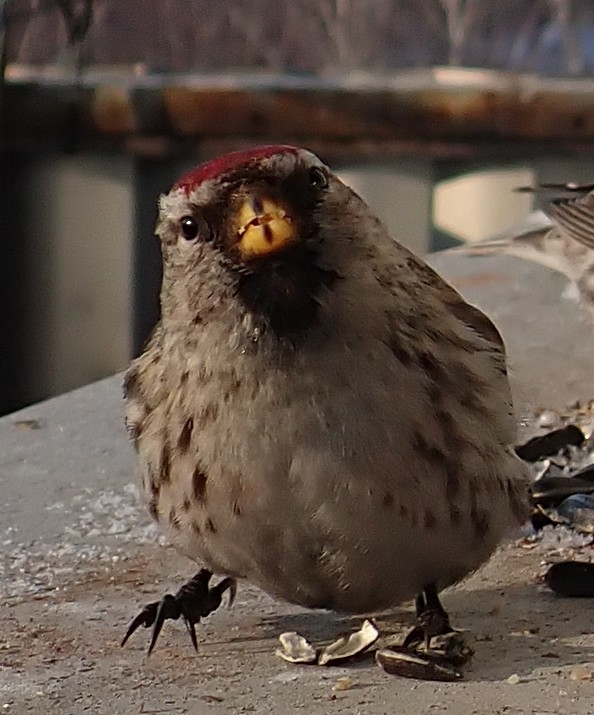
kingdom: Animalia
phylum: Chordata
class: Aves
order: Passeriformes
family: Fringillidae
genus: Acanthis
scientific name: Acanthis flammea
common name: Common redpoll
